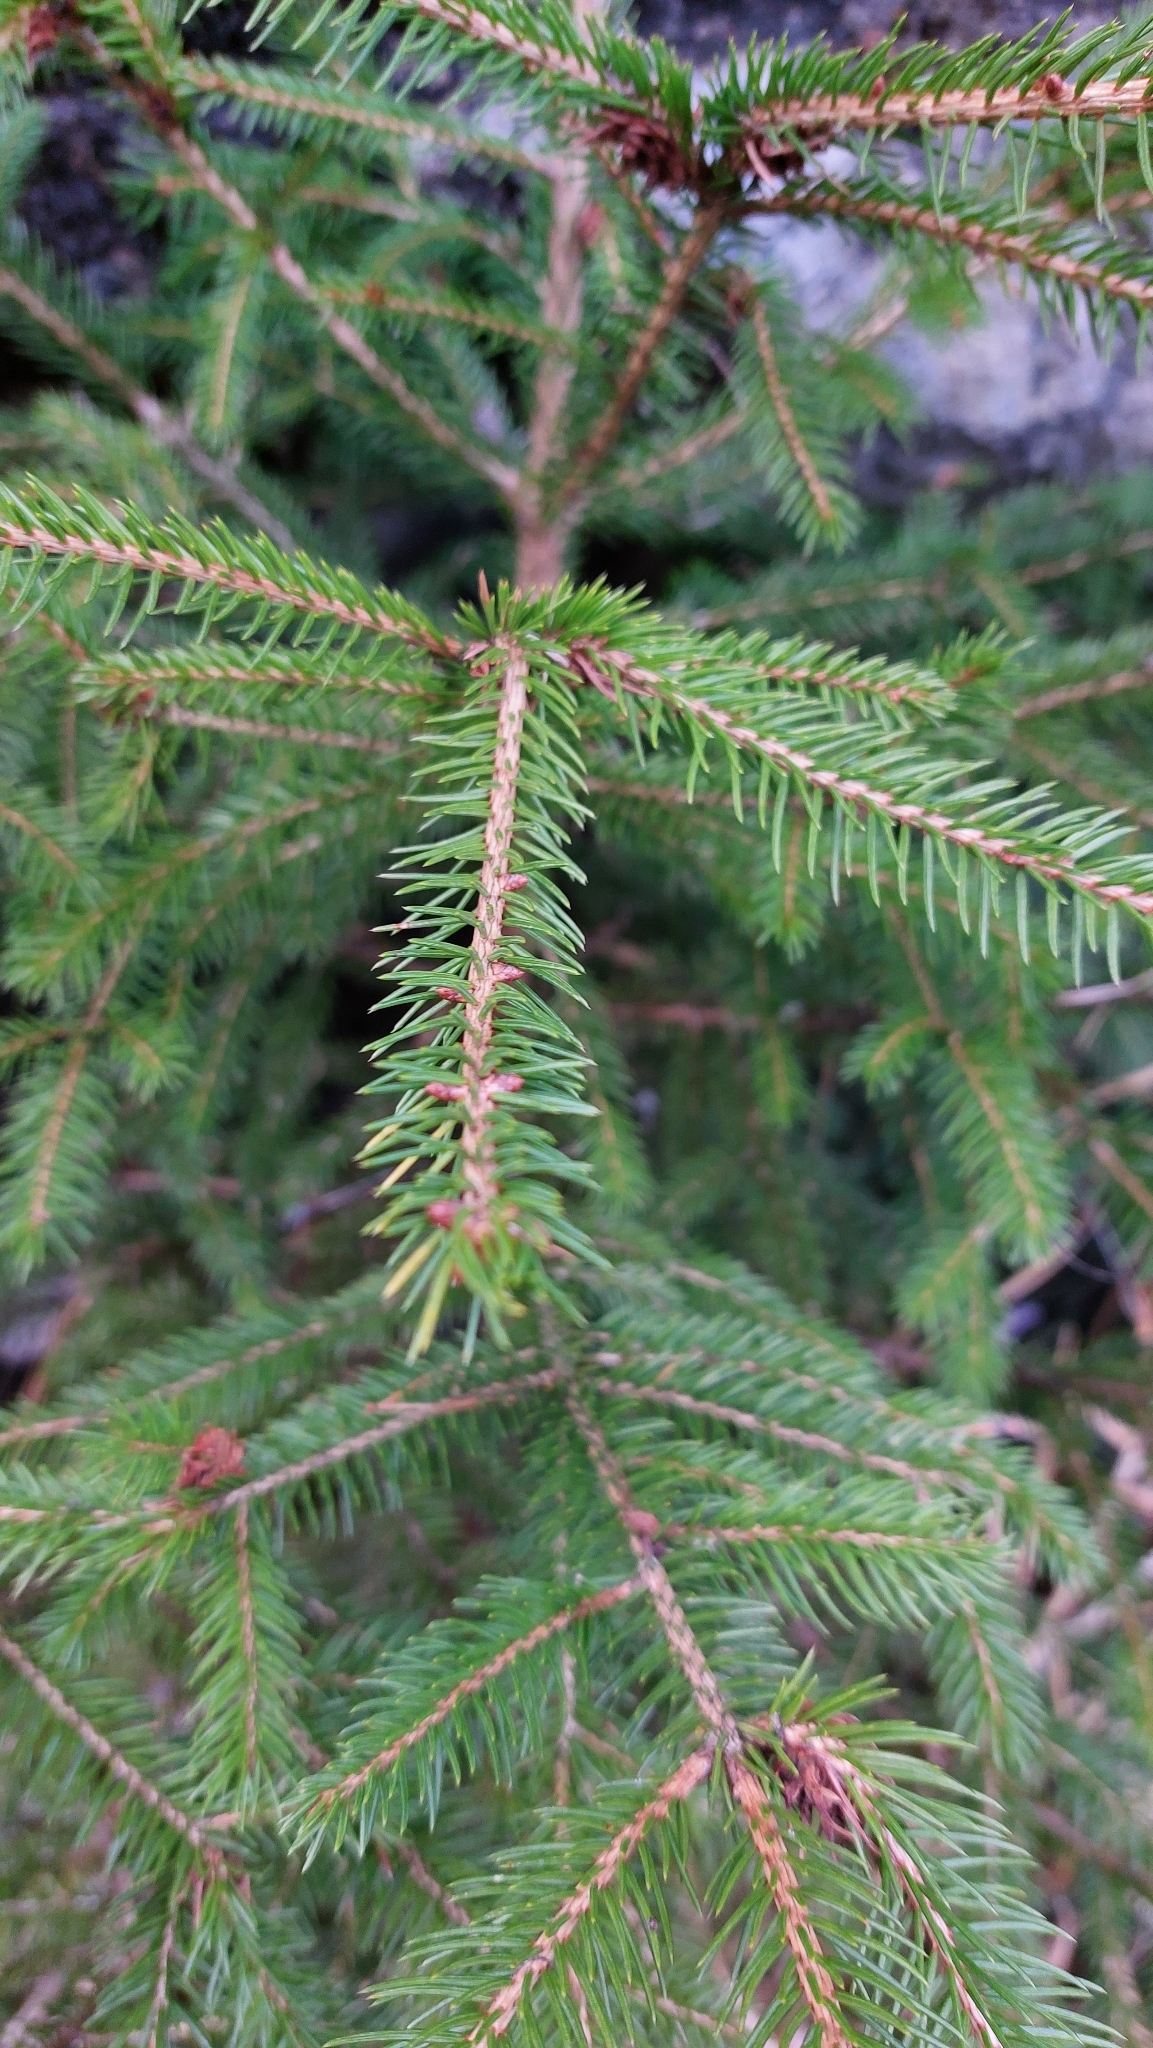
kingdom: Plantae
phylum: Tracheophyta
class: Pinopsida
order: Pinales
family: Pinaceae
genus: Picea
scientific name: Picea abies
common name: Norway spruce
